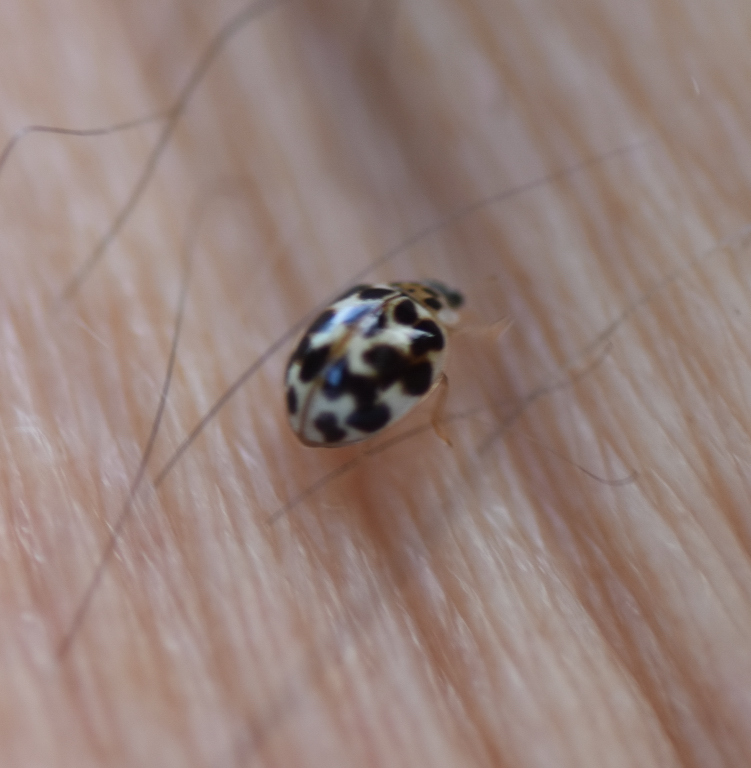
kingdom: Animalia
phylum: Arthropoda
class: Insecta
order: Coleoptera
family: Coccinellidae
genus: Psyllobora
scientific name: Psyllobora vigintimaculata
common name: Ladybird beetle
